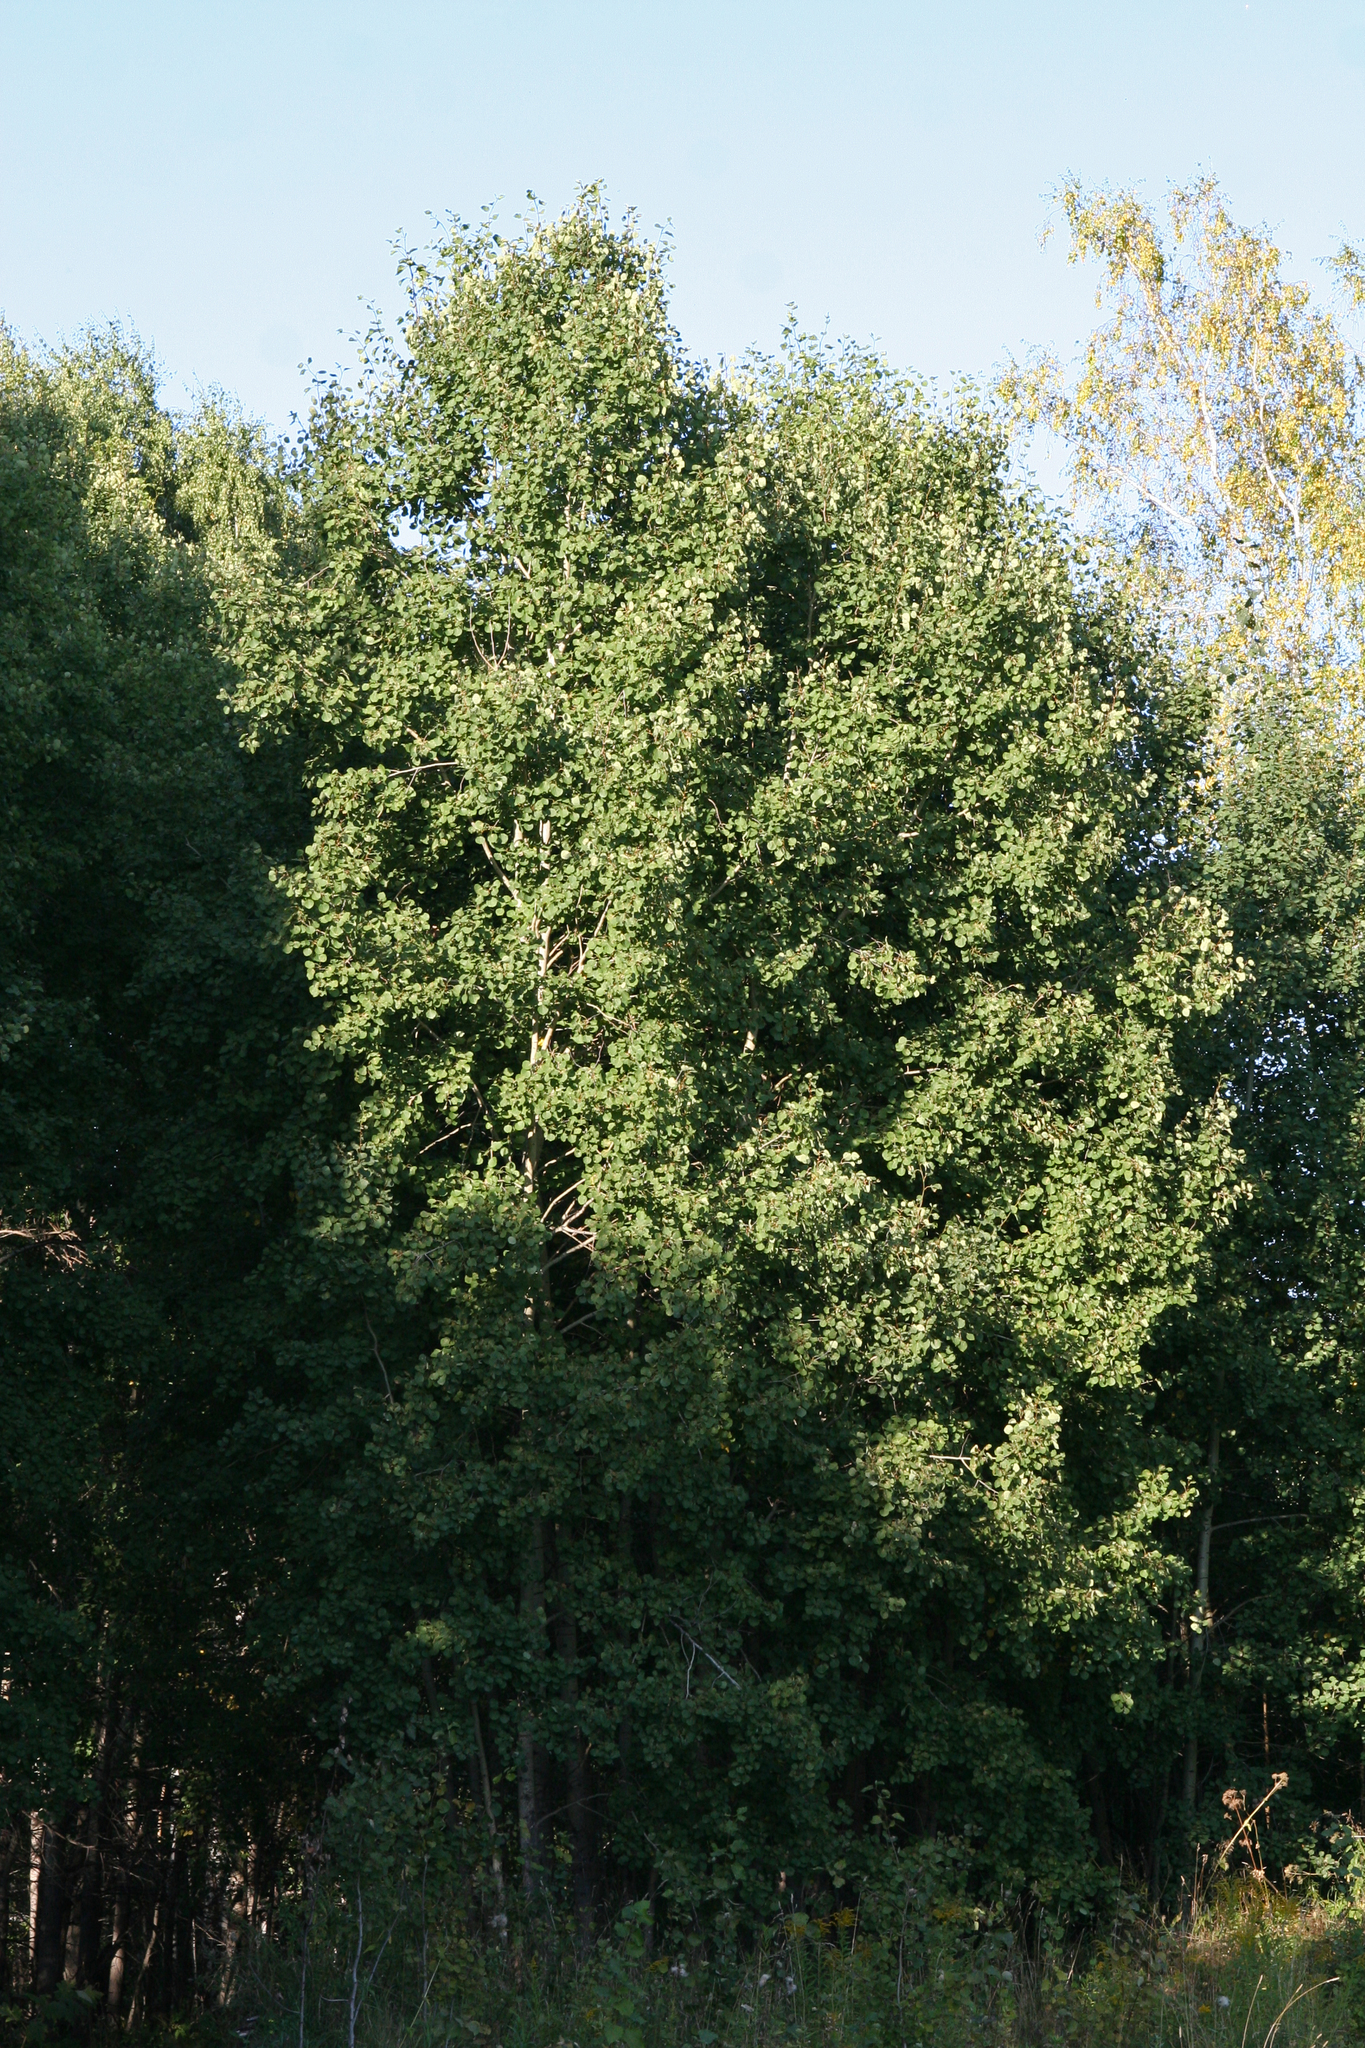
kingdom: Plantae
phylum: Tracheophyta
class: Magnoliopsida
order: Malpighiales
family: Salicaceae
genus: Populus
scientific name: Populus tremula
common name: European aspen
